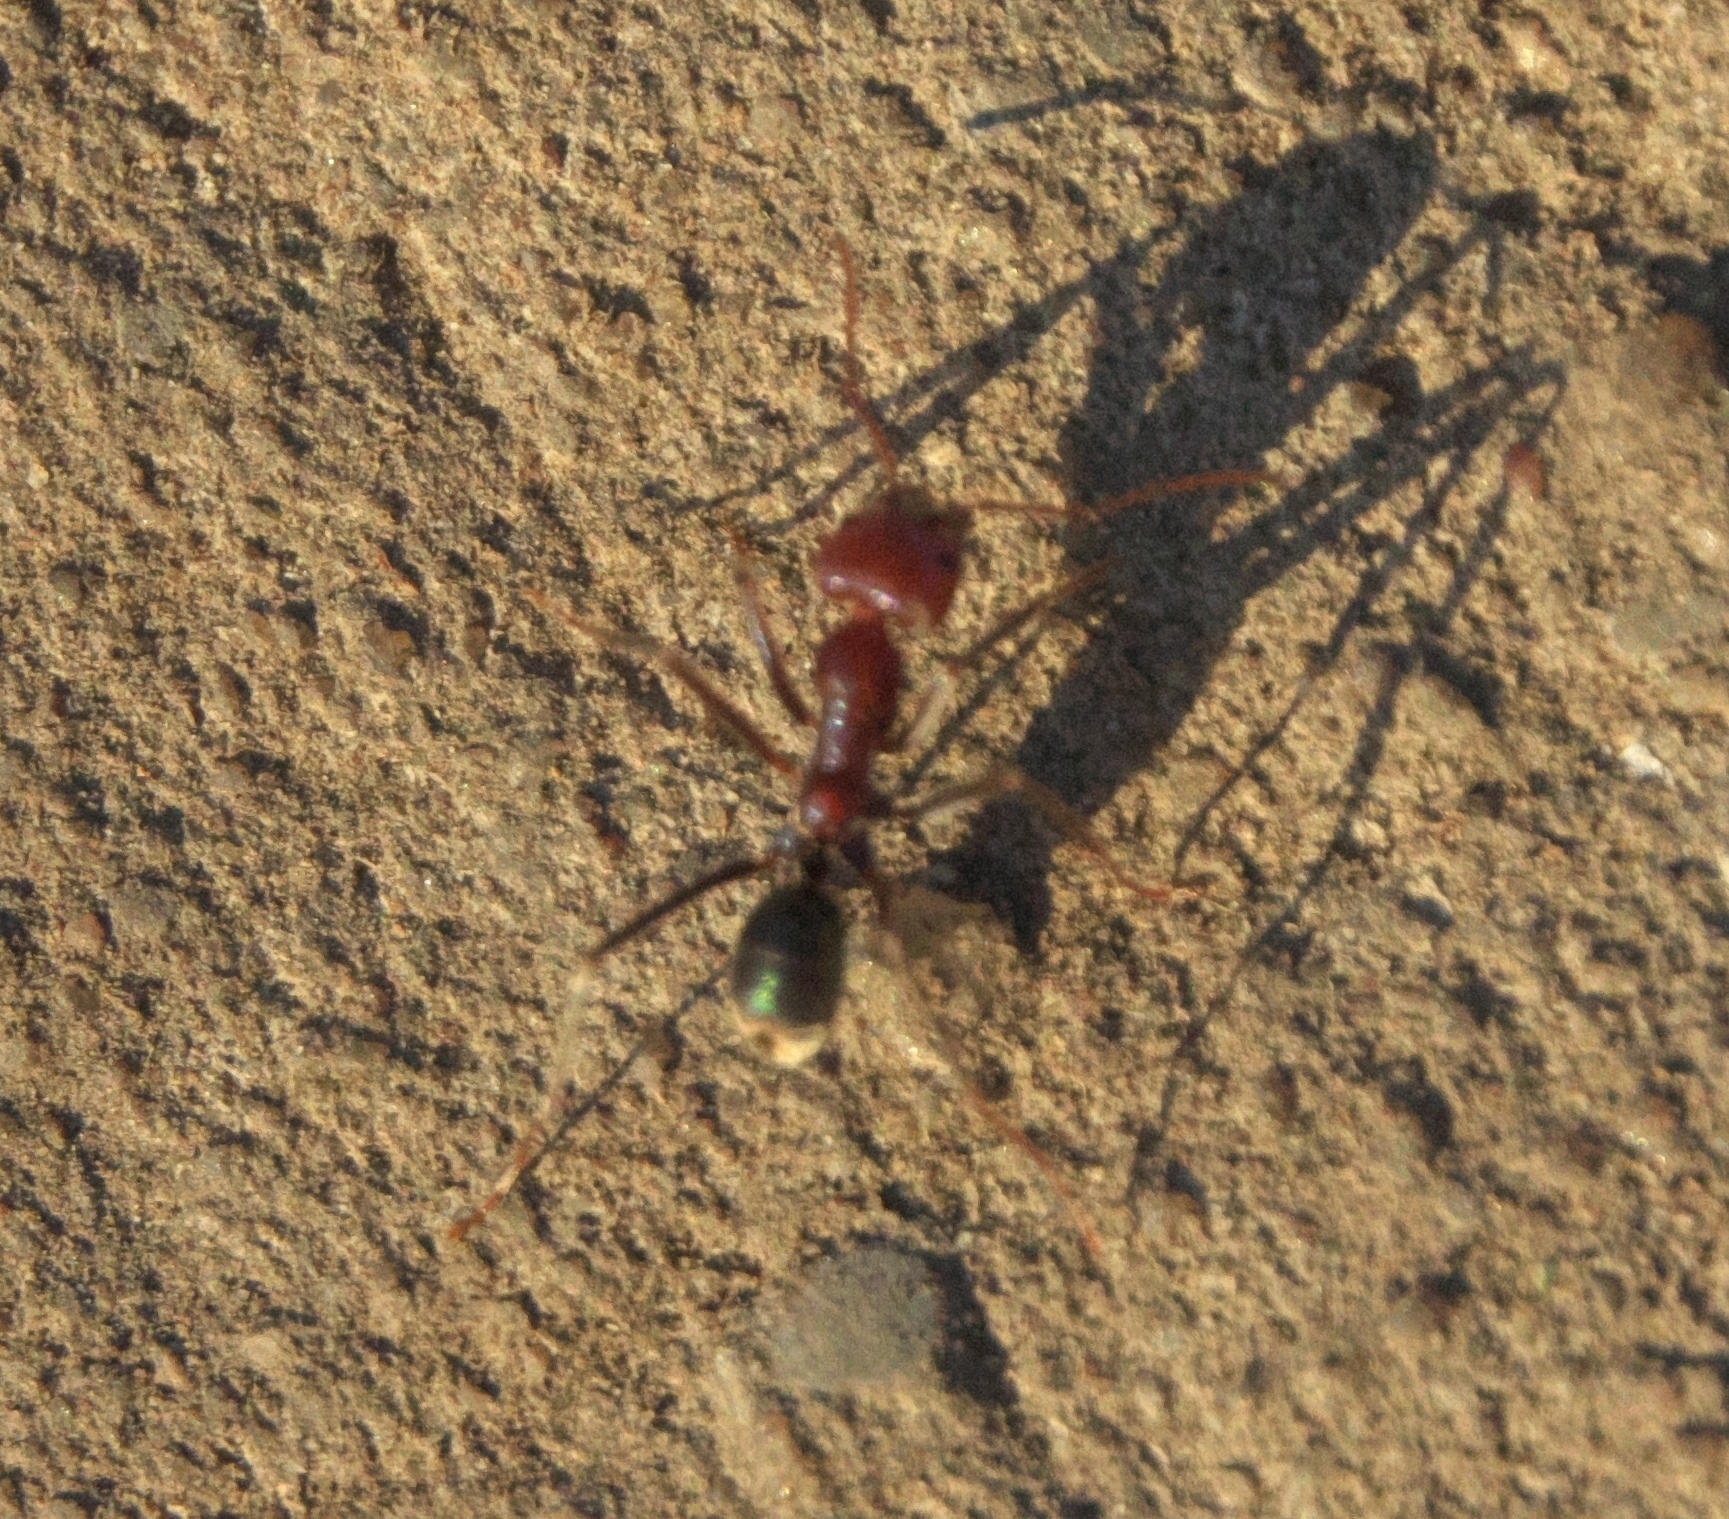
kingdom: Animalia
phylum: Arthropoda
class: Insecta
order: Hymenoptera
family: Formicidae
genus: Iridomyrmex
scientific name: Iridomyrmex purpureus
